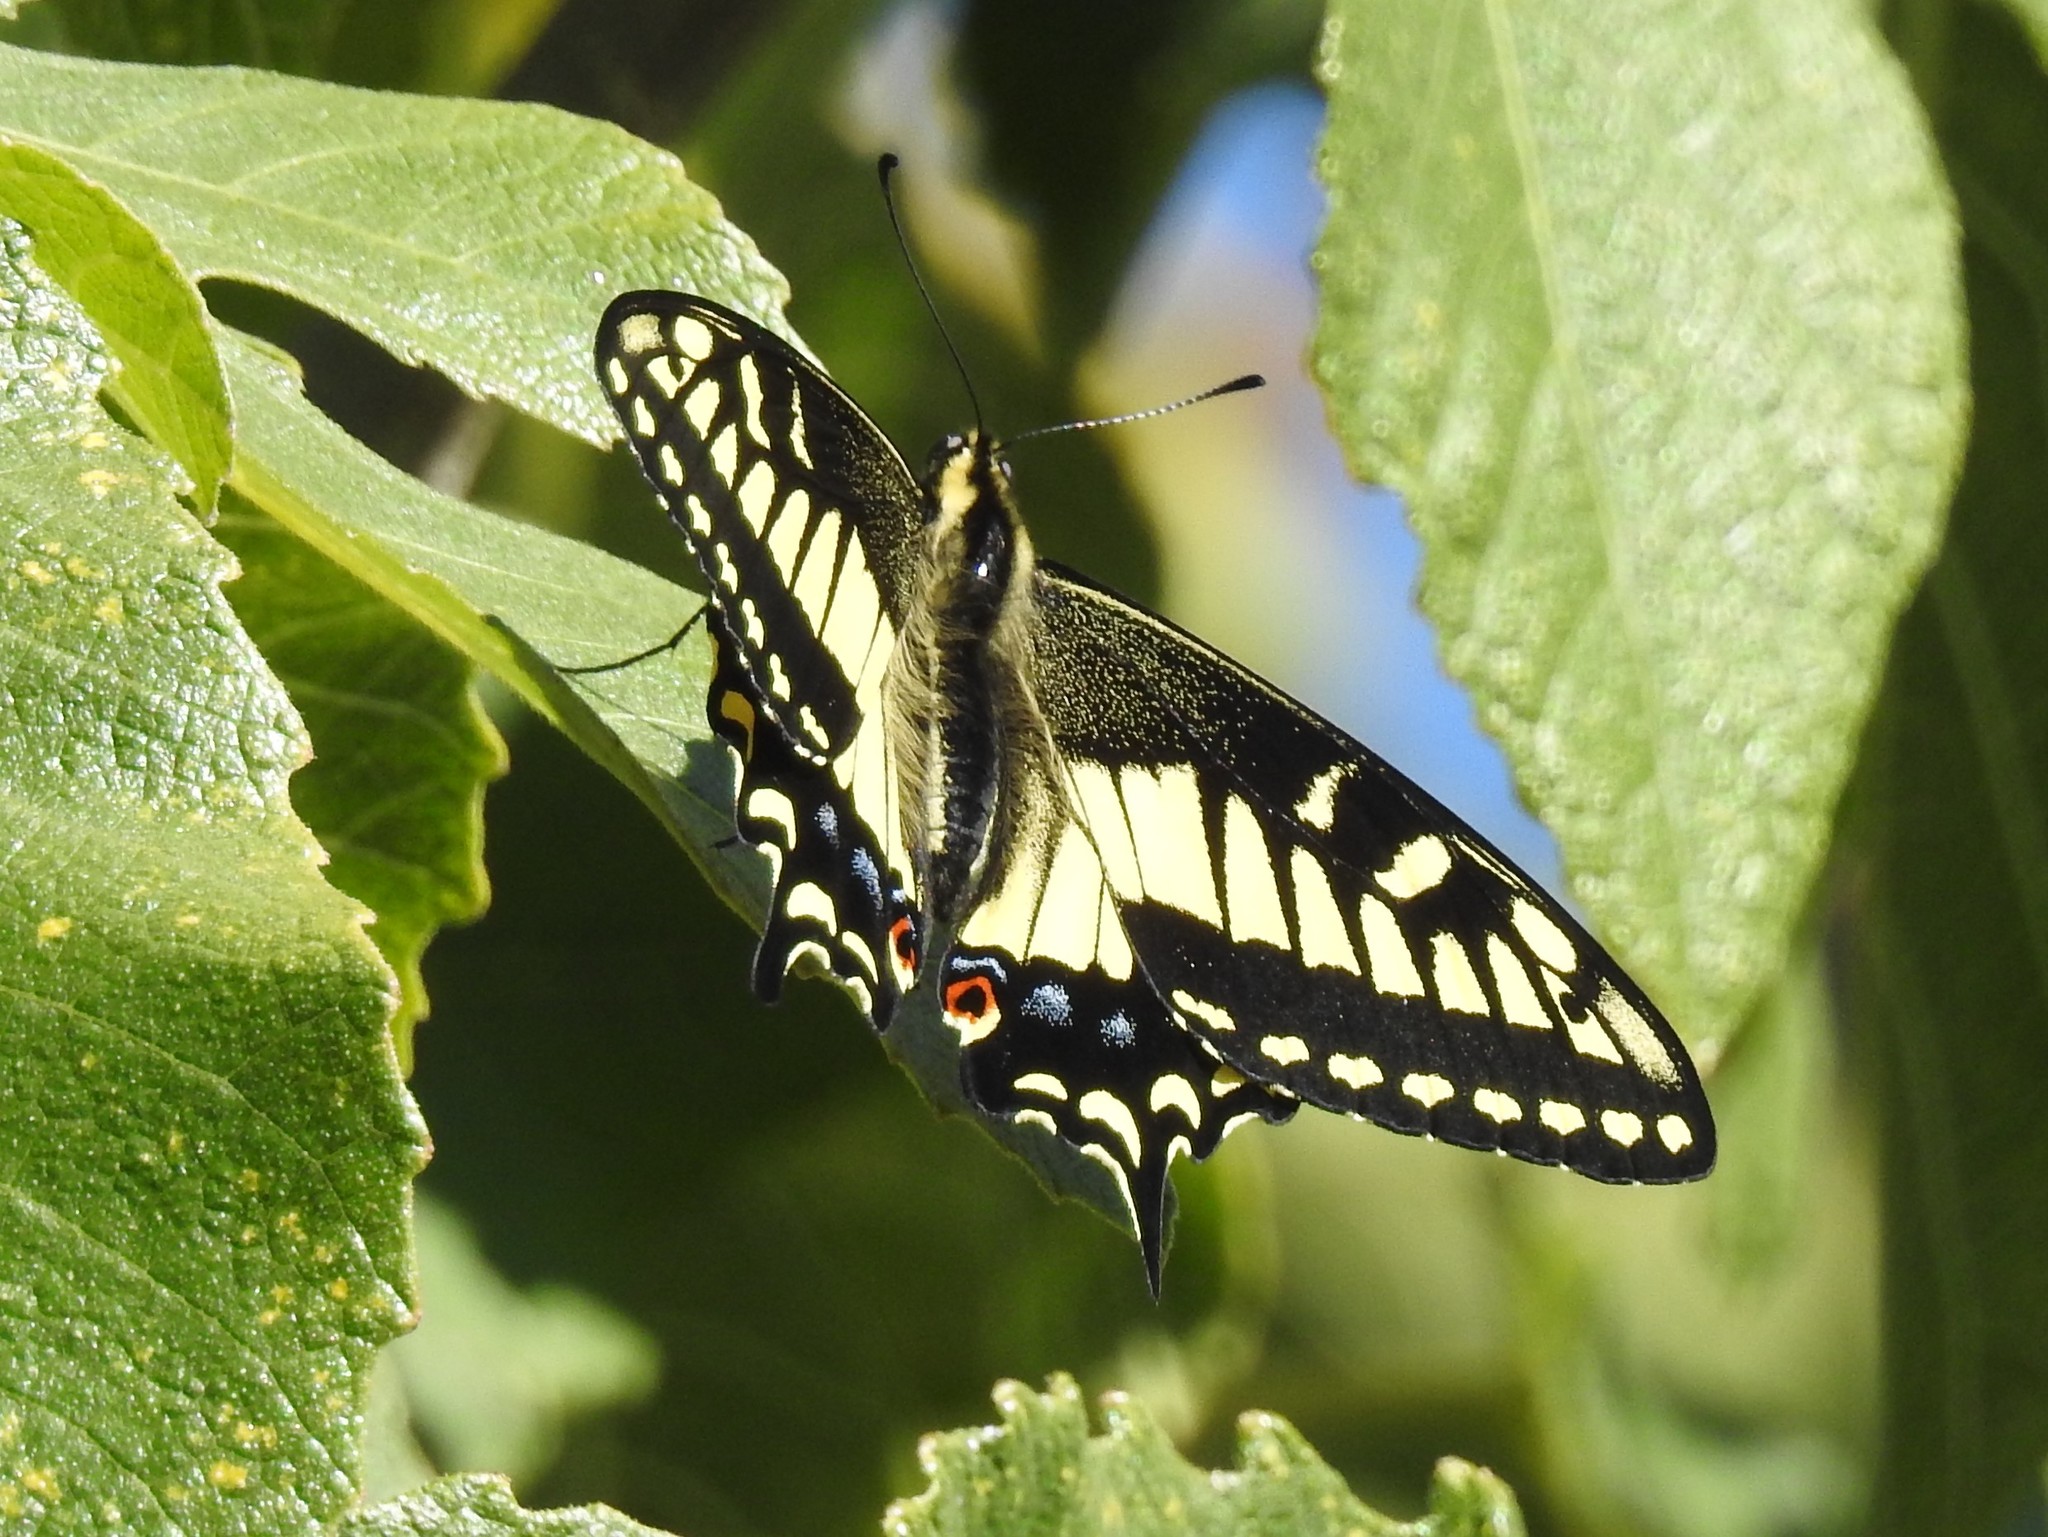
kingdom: Animalia
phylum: Arthropoda
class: Insecta
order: Lepidoptera
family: Papilionidae
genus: Papilio
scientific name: Papilio zelicaon
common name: Anise swallowtail
